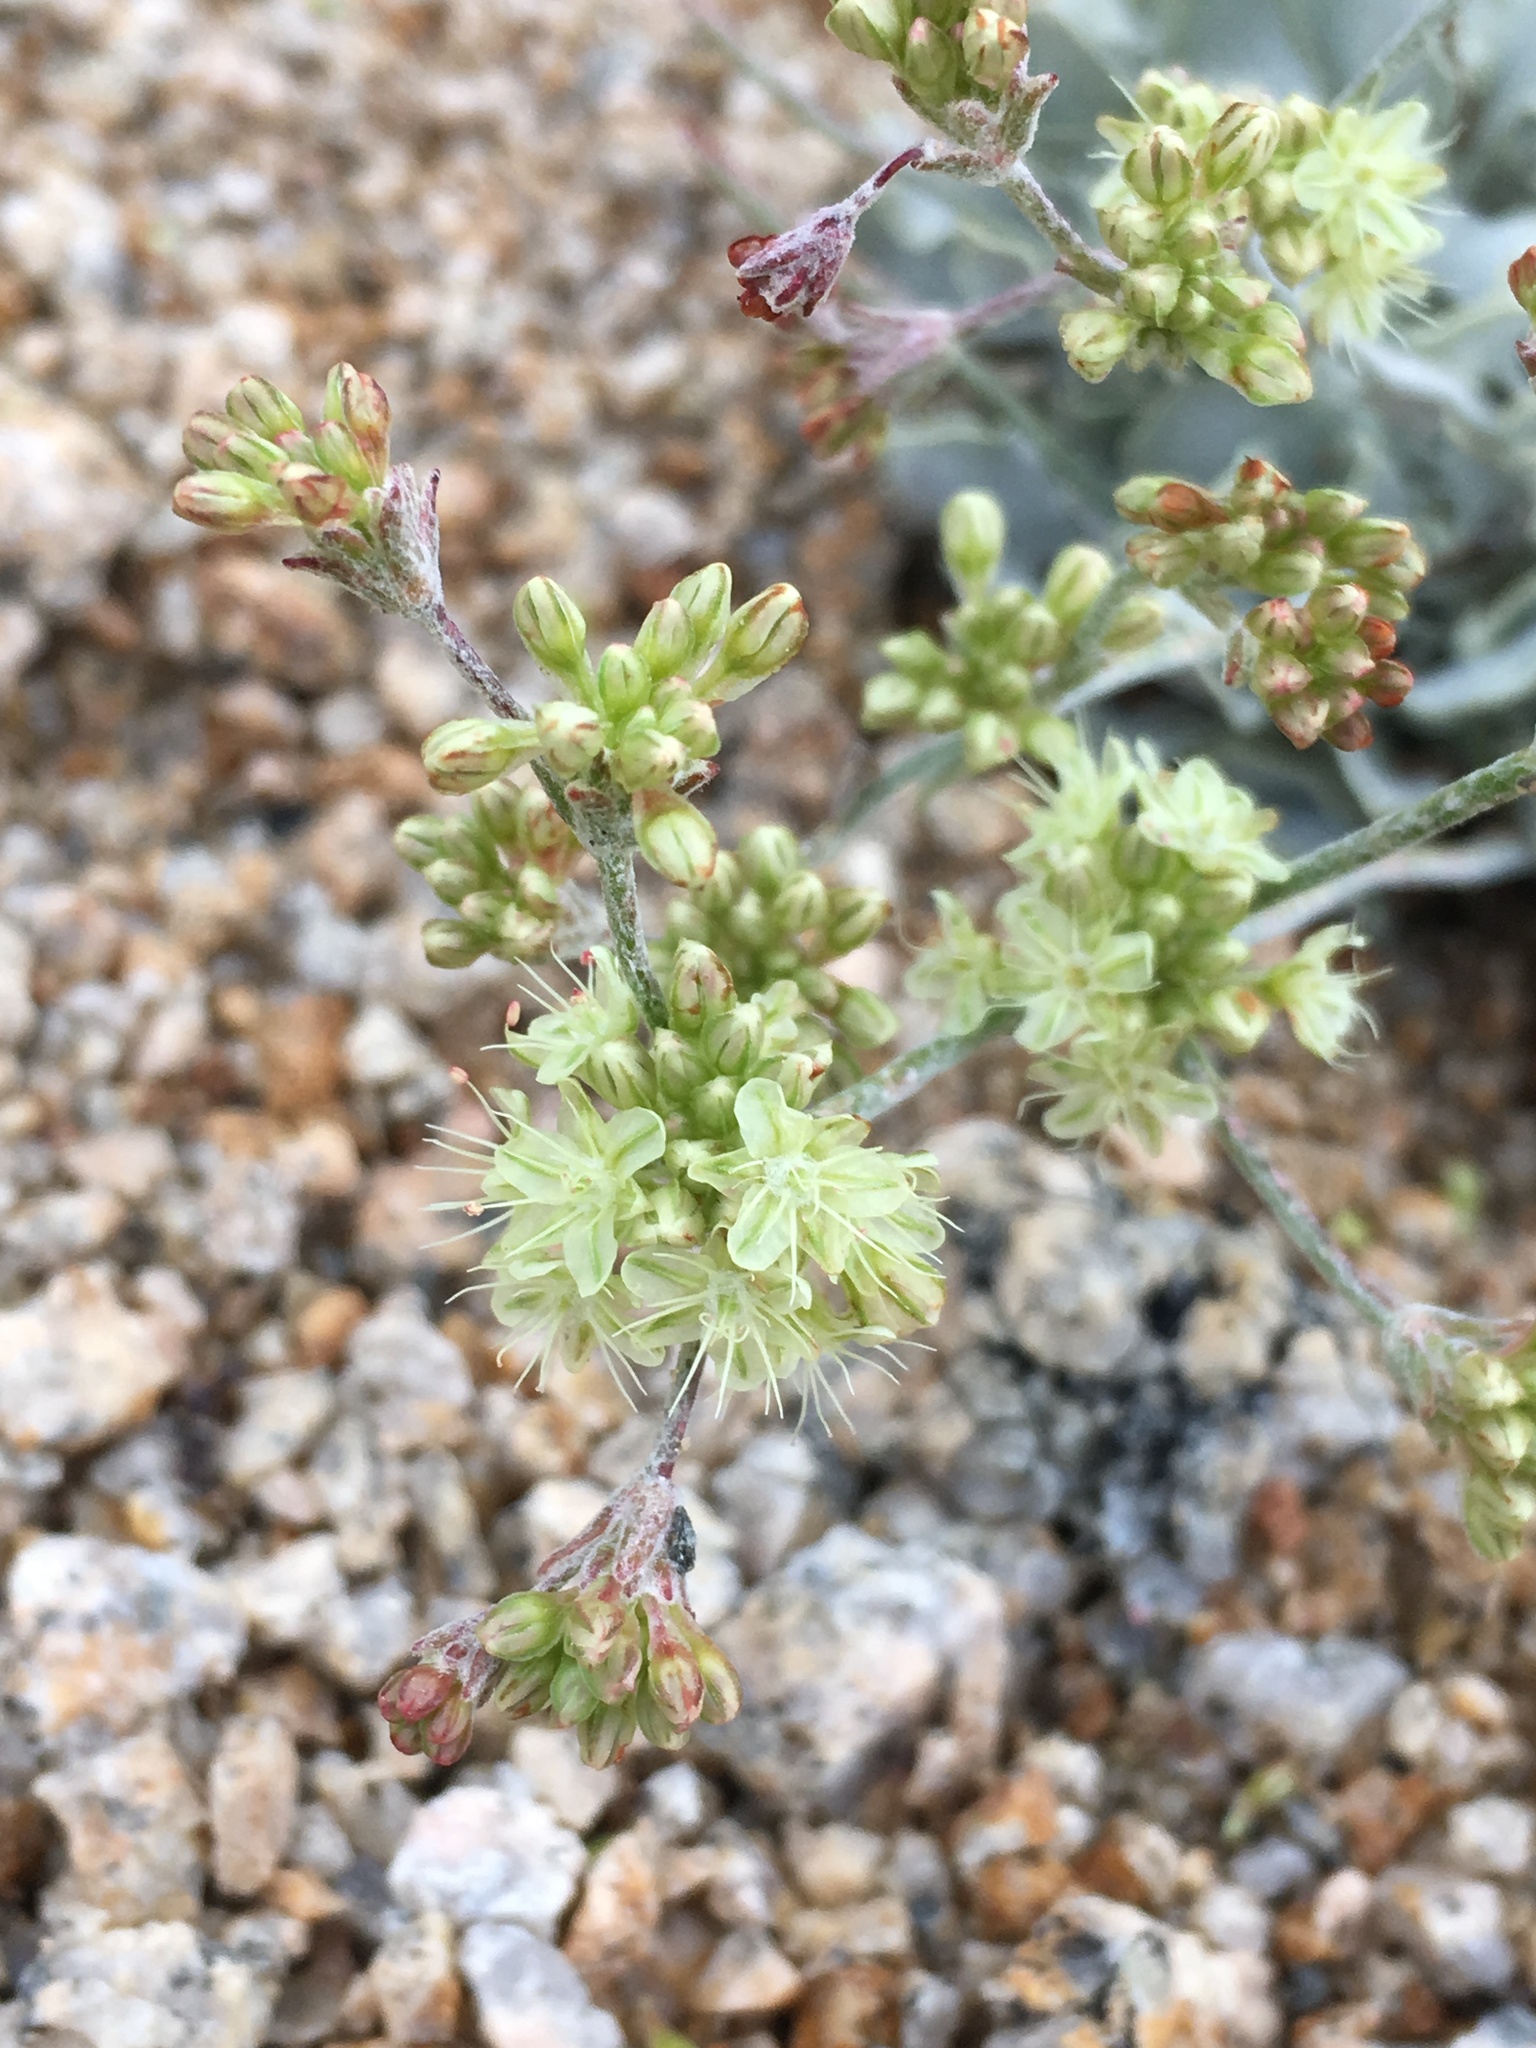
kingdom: Plantae
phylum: Tracheophyta
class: Magnoliopsida
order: Caryophyllales
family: Polygonaceae
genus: Eriogonum
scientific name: Eriogonum saxatile
